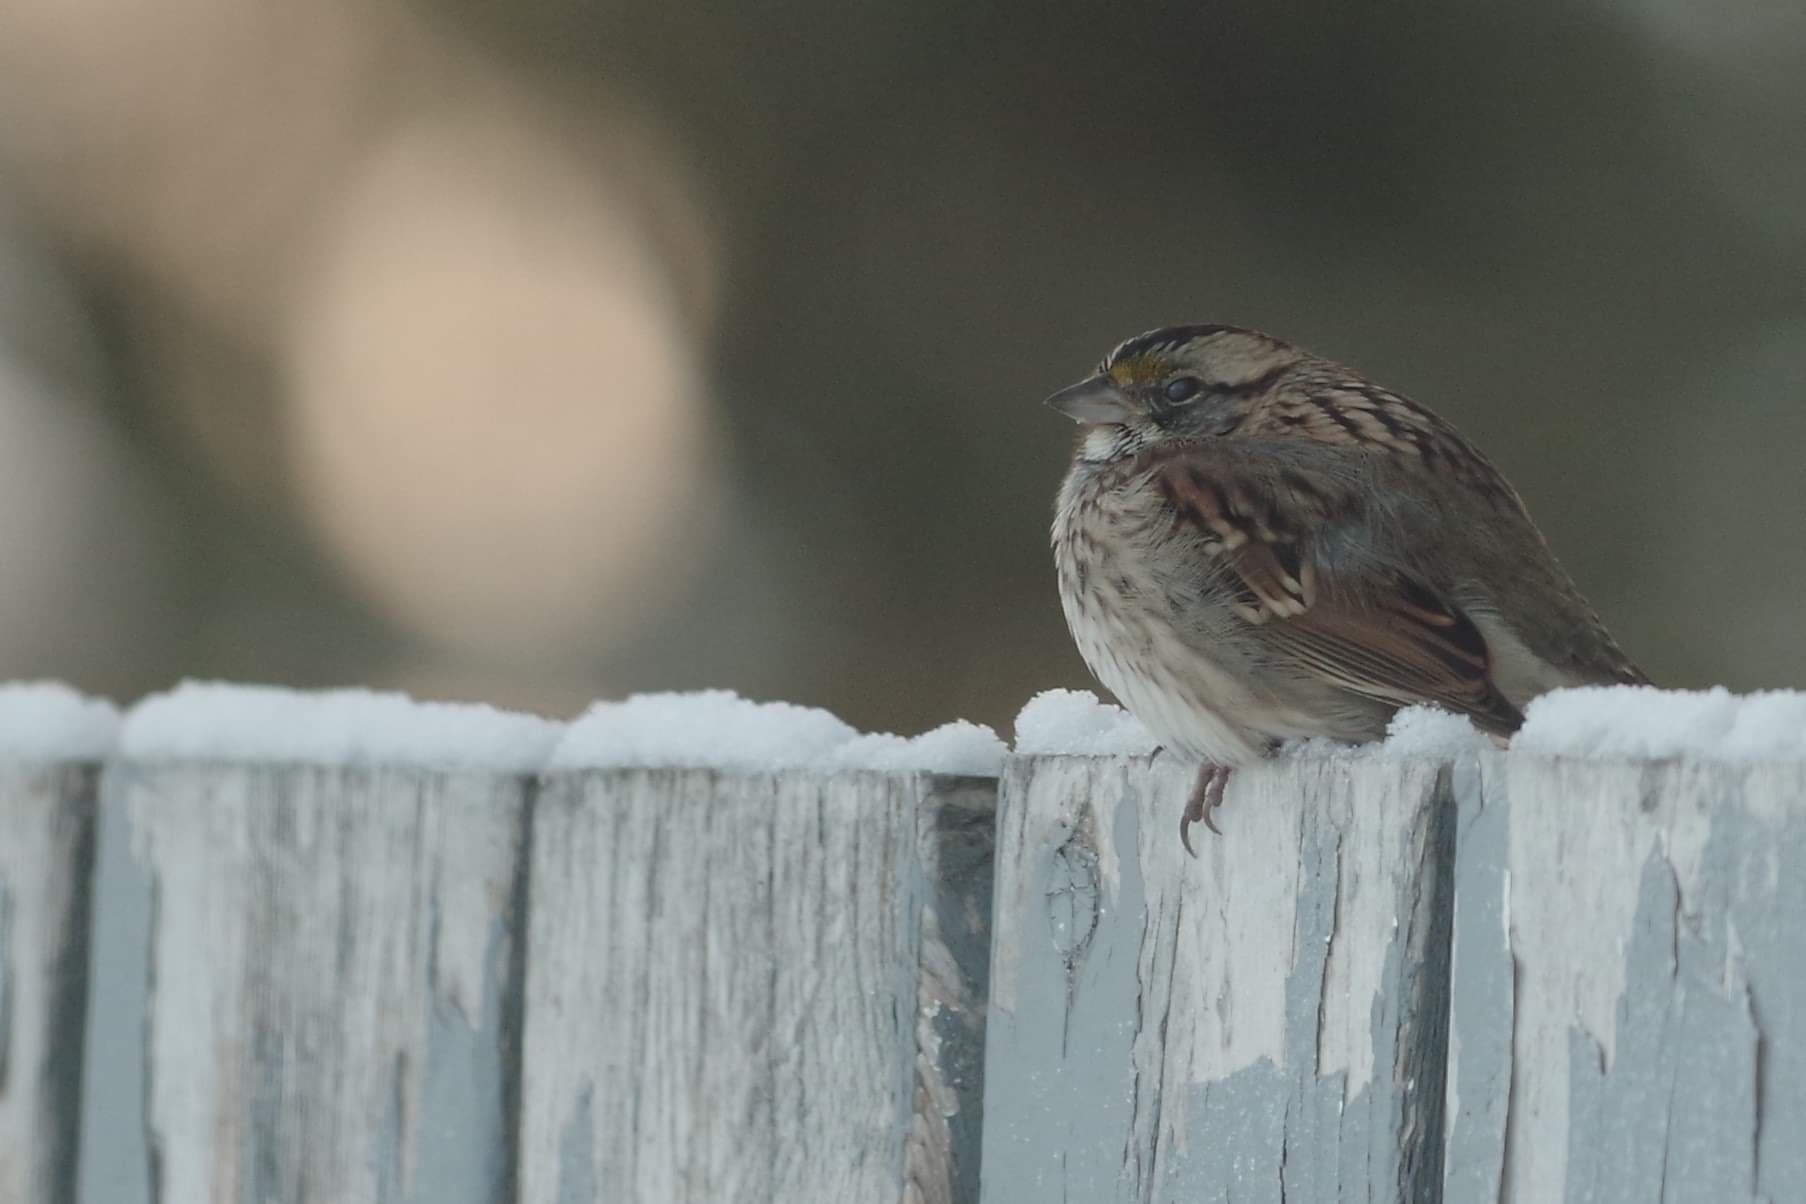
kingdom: Animalia
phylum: Chordata
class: Aves
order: Passeriformes
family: Passerellidae
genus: Zonotrichia
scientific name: Zonotrichia albicollis
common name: White-throated sparrow
